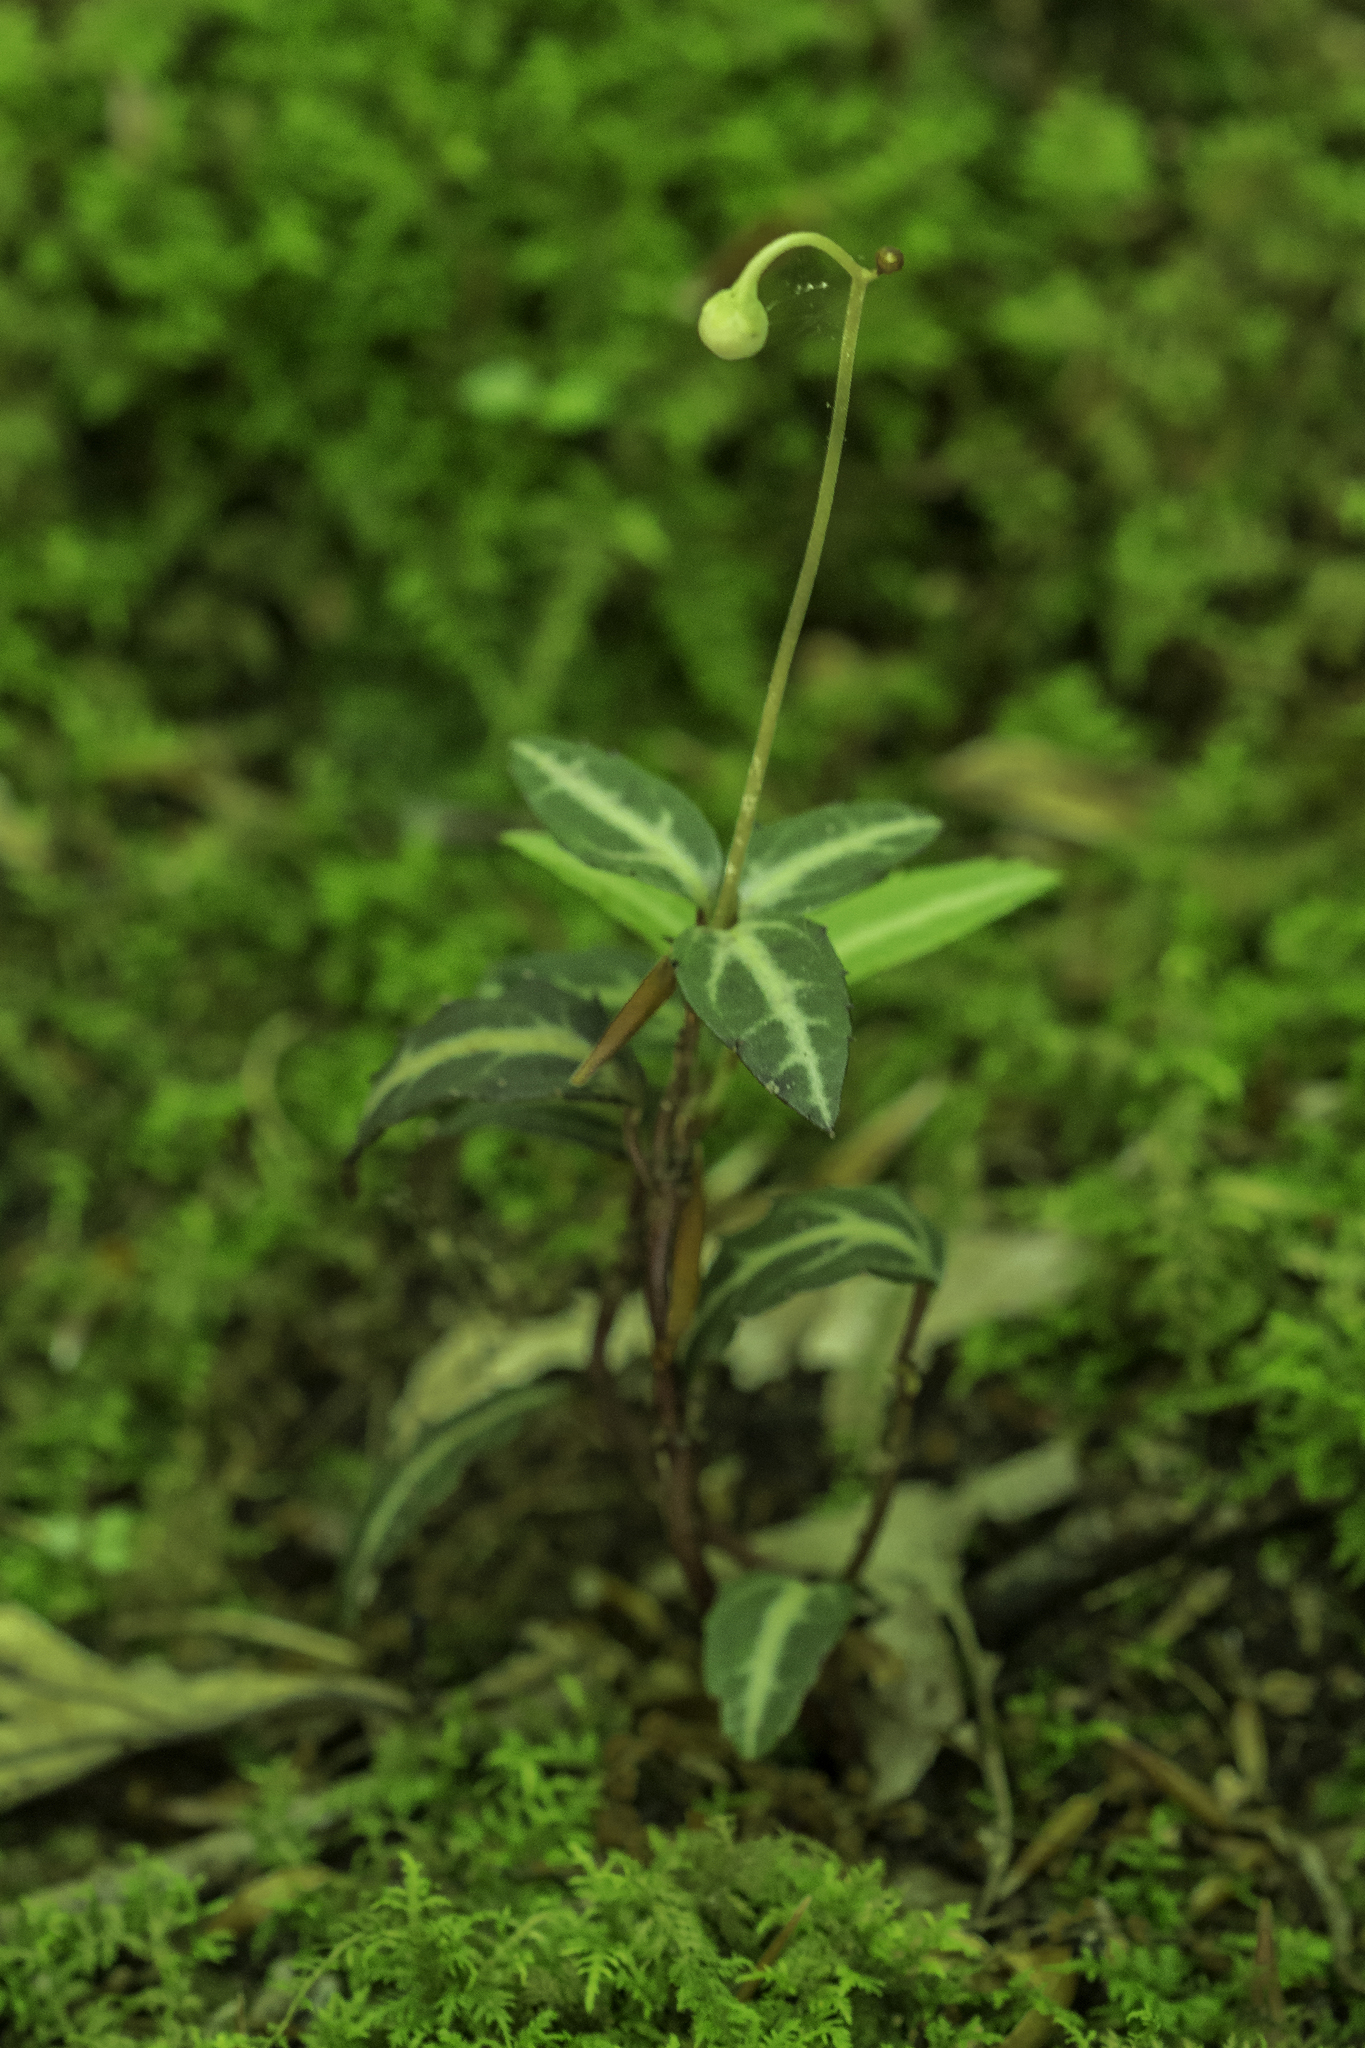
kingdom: Plantae
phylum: Tracheophyta
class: Magnoliopsida
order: Ericales
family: Ericaceae
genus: Chimaphila
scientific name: Chimaphila maculata
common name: Spotted pipsissewa
